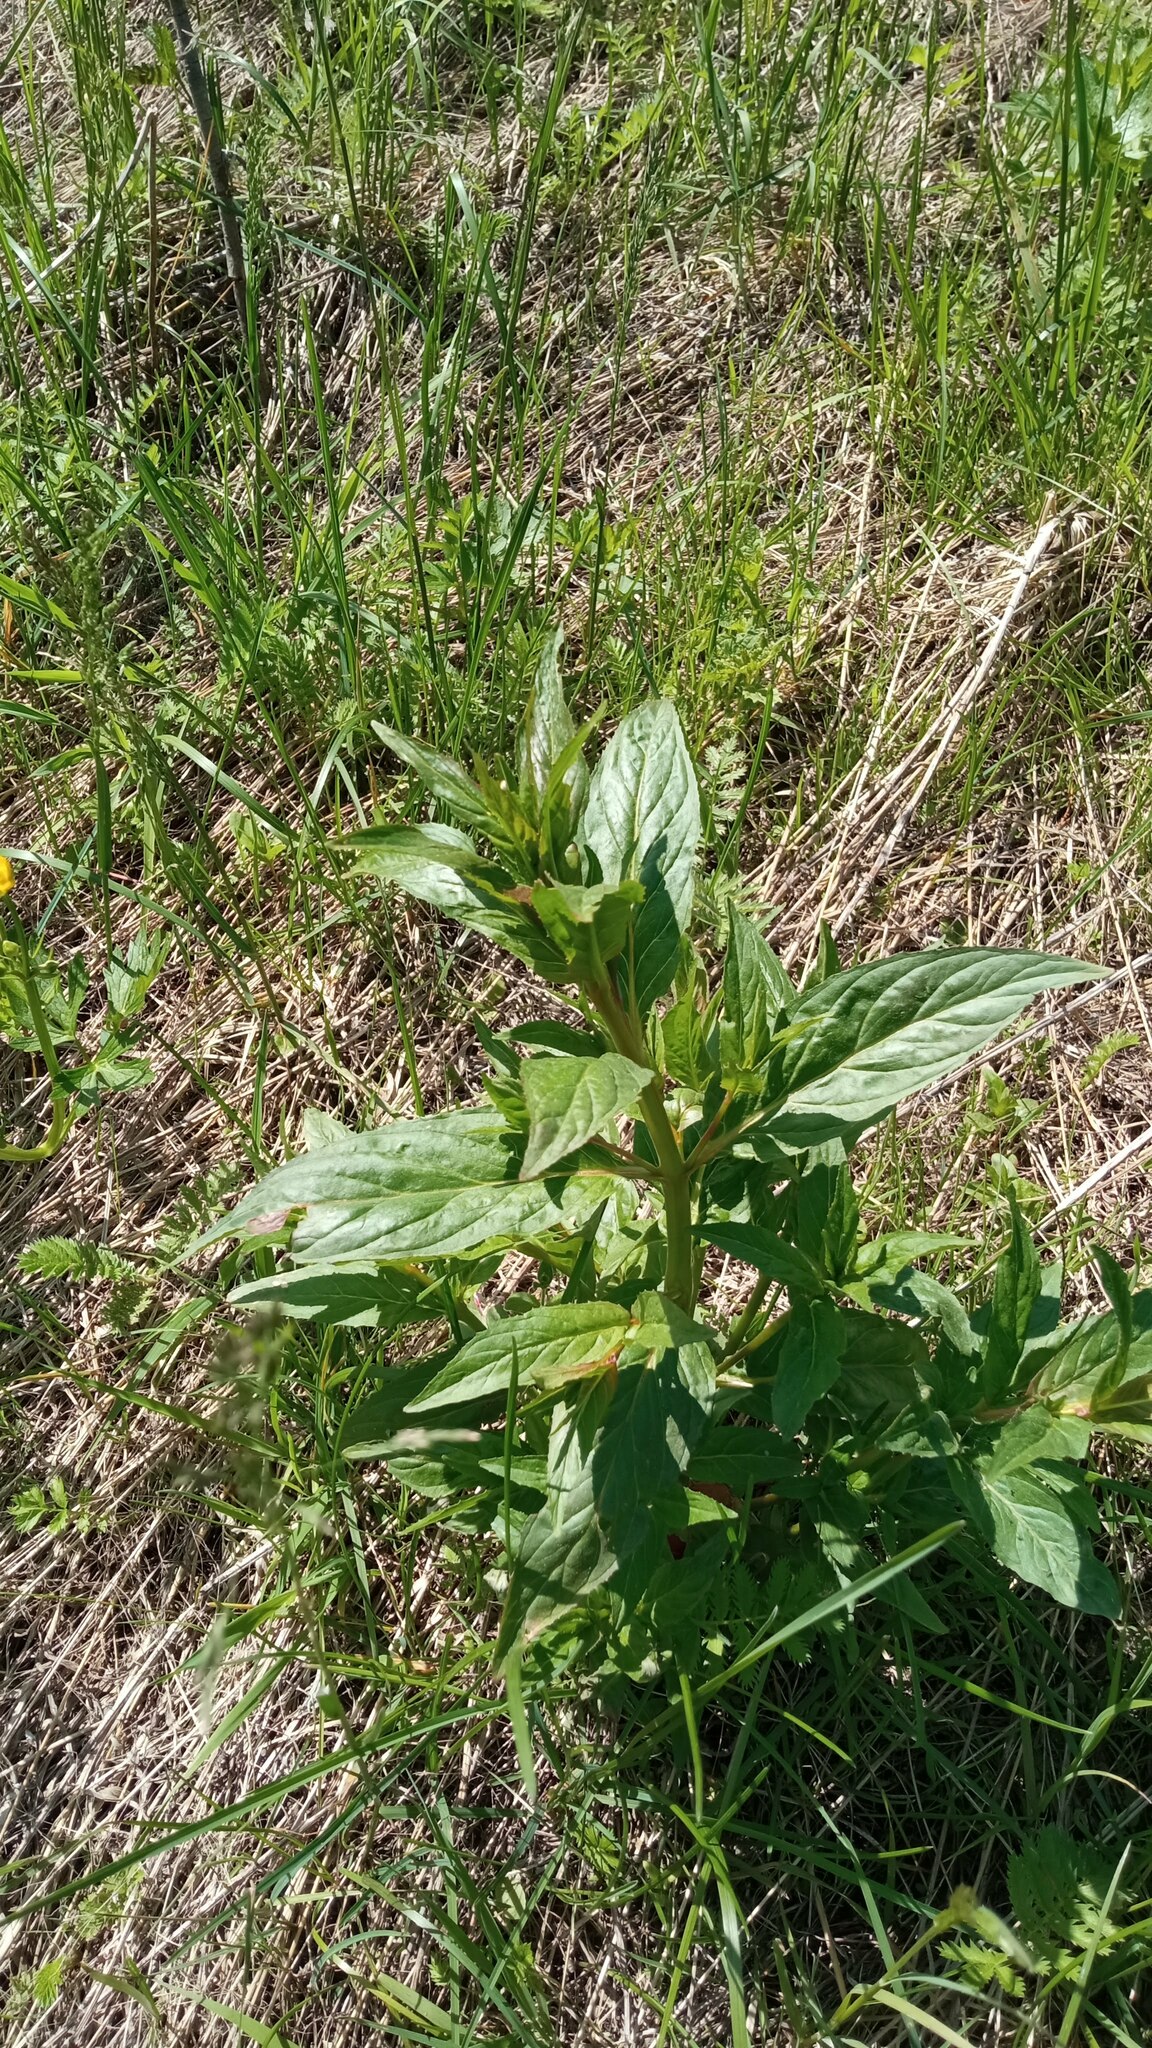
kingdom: Plantae
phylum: Tracheophyta
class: Magnoliopsida
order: Myrtales
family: Onagraceae
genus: Epilobium
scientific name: Epilobium
